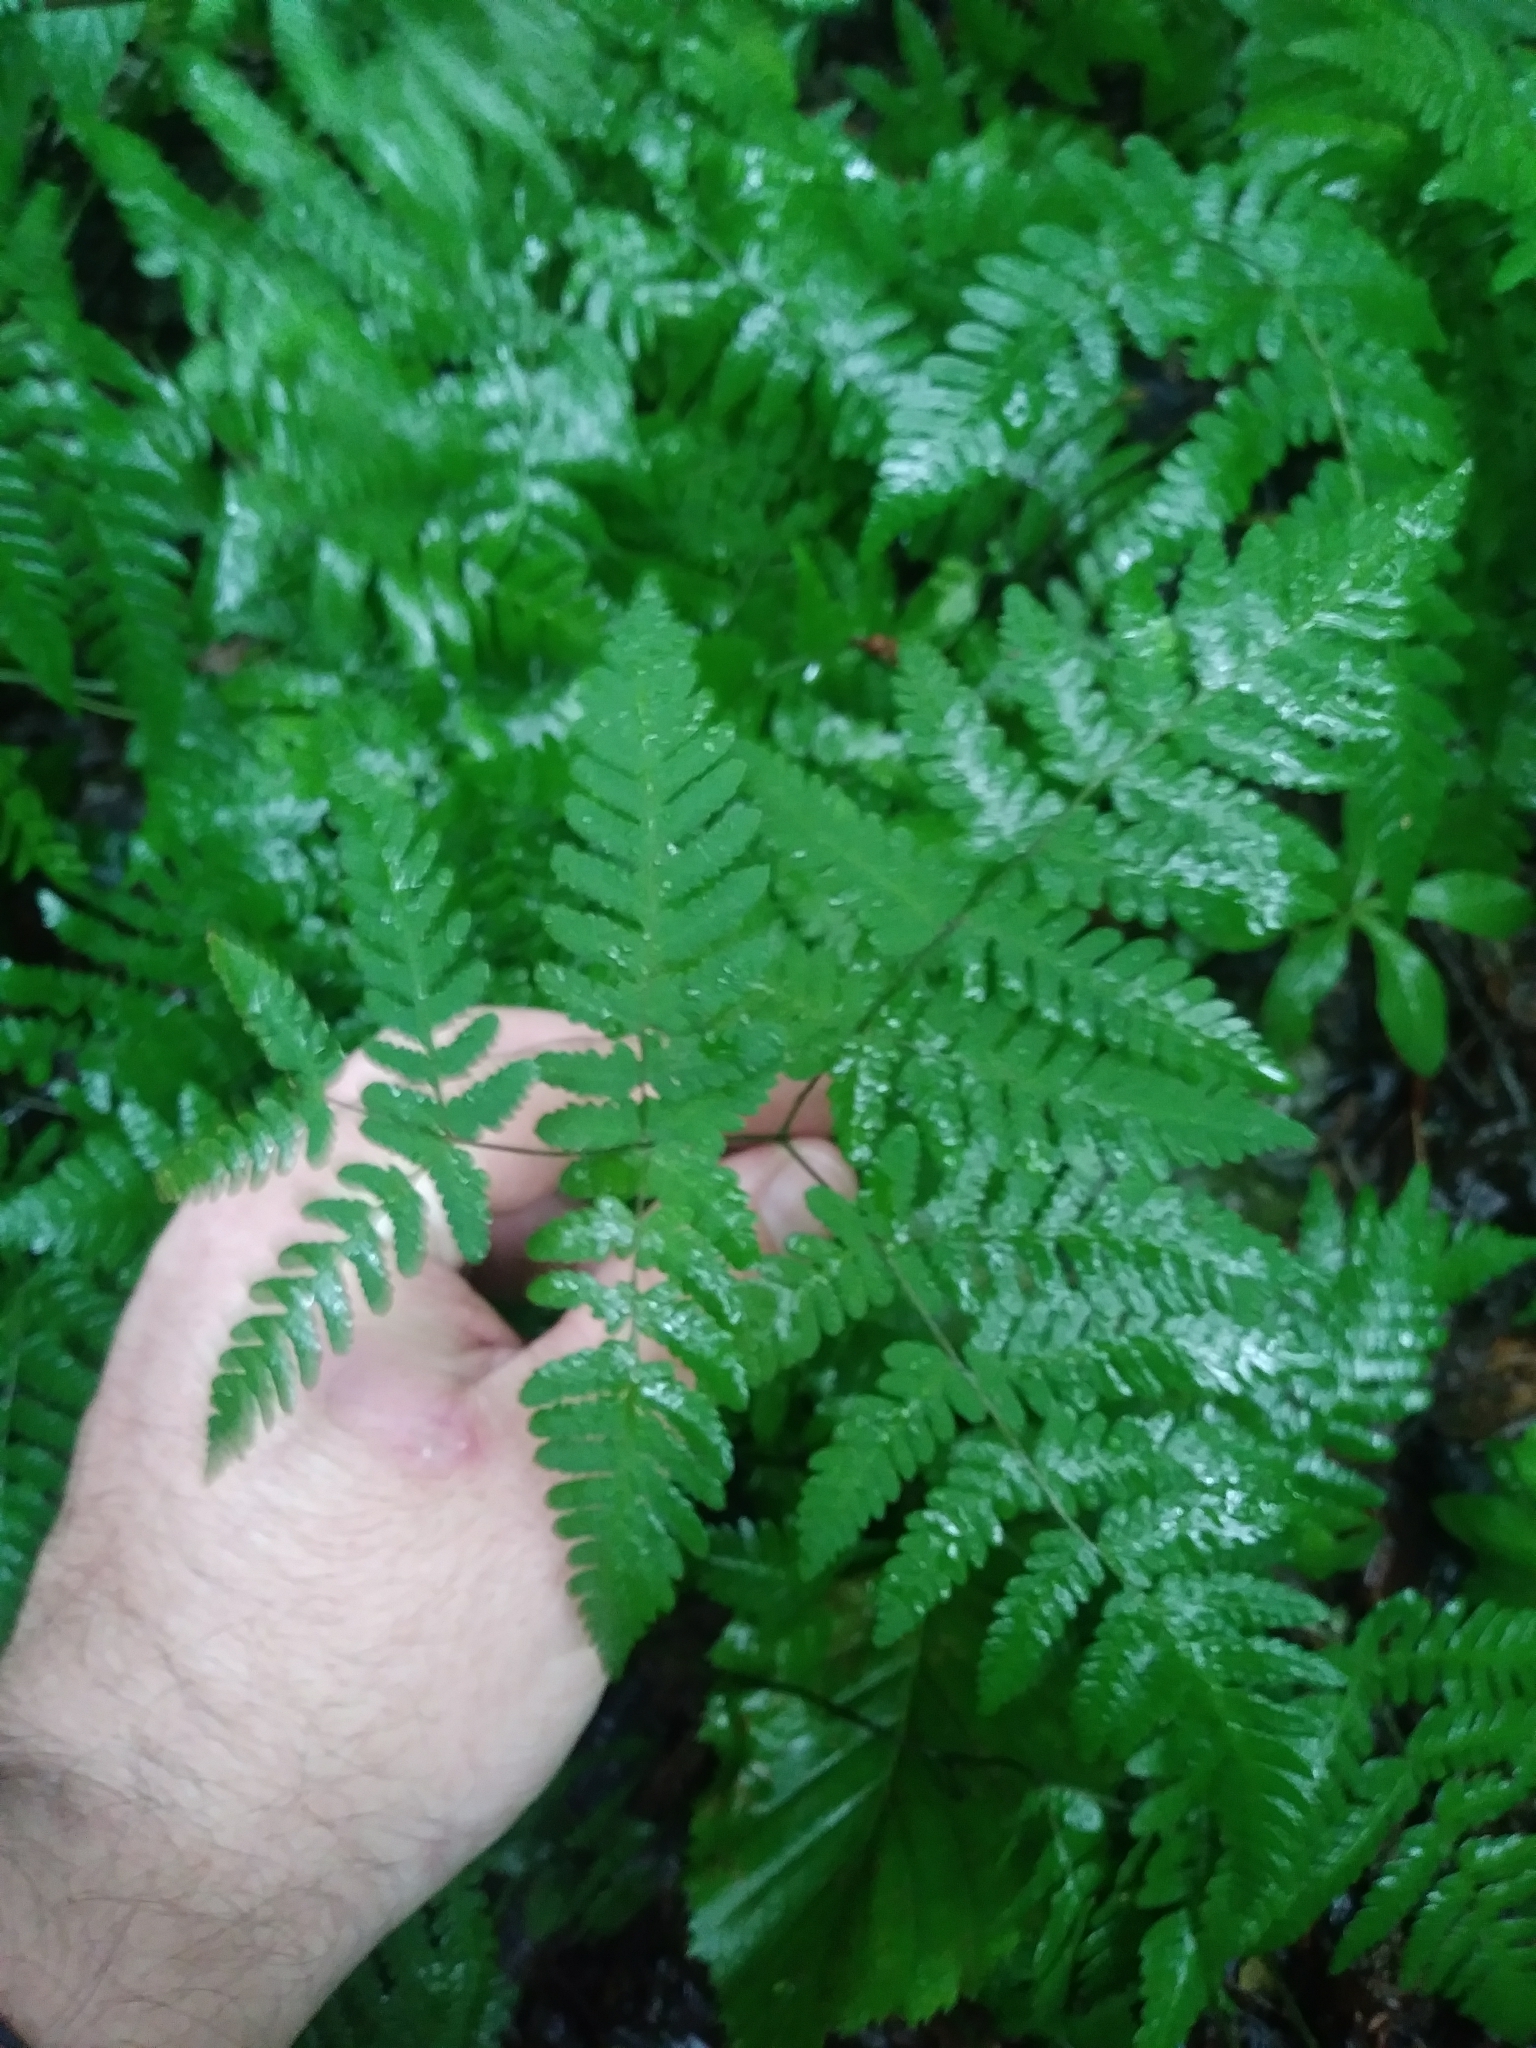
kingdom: Plantae
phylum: Tracheophyta
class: Polypodiopsida
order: Polypodiales
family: Cystopteridaceae
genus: Gymnocarpium
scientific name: Gymnocarpium dryopteris
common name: Oak fern
